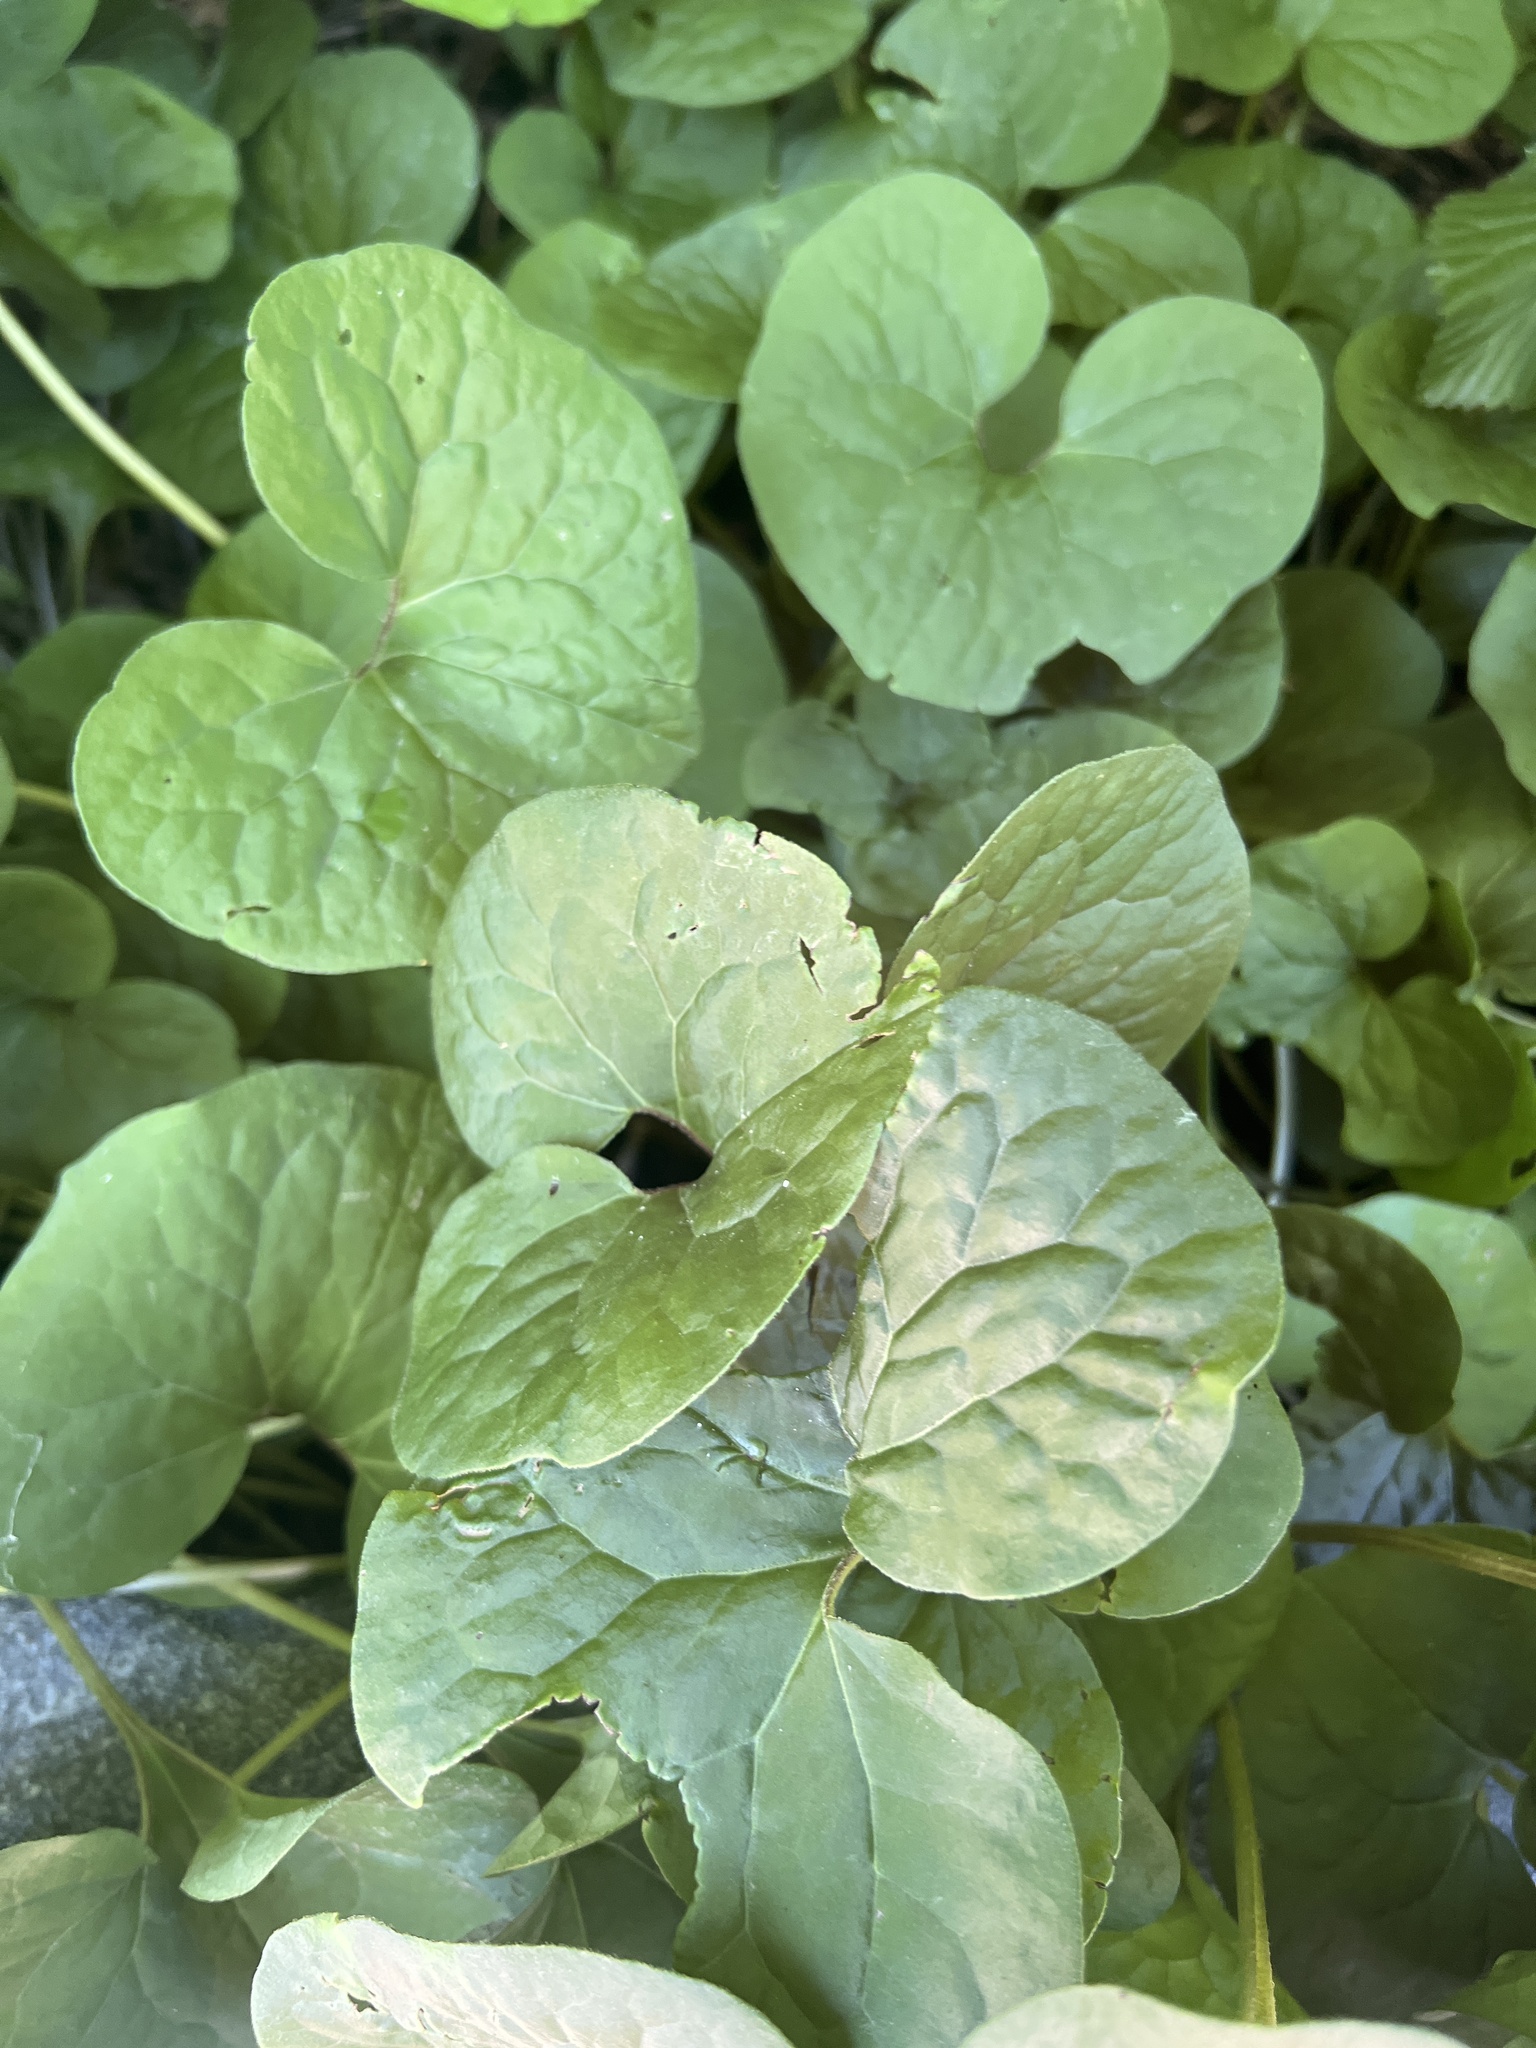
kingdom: Plantae
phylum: Tracheophyta
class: Magnoliopsida
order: Piperales
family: Aristolochiaceae
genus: Asarum
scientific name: Asarum canadense
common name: Wild ginger
